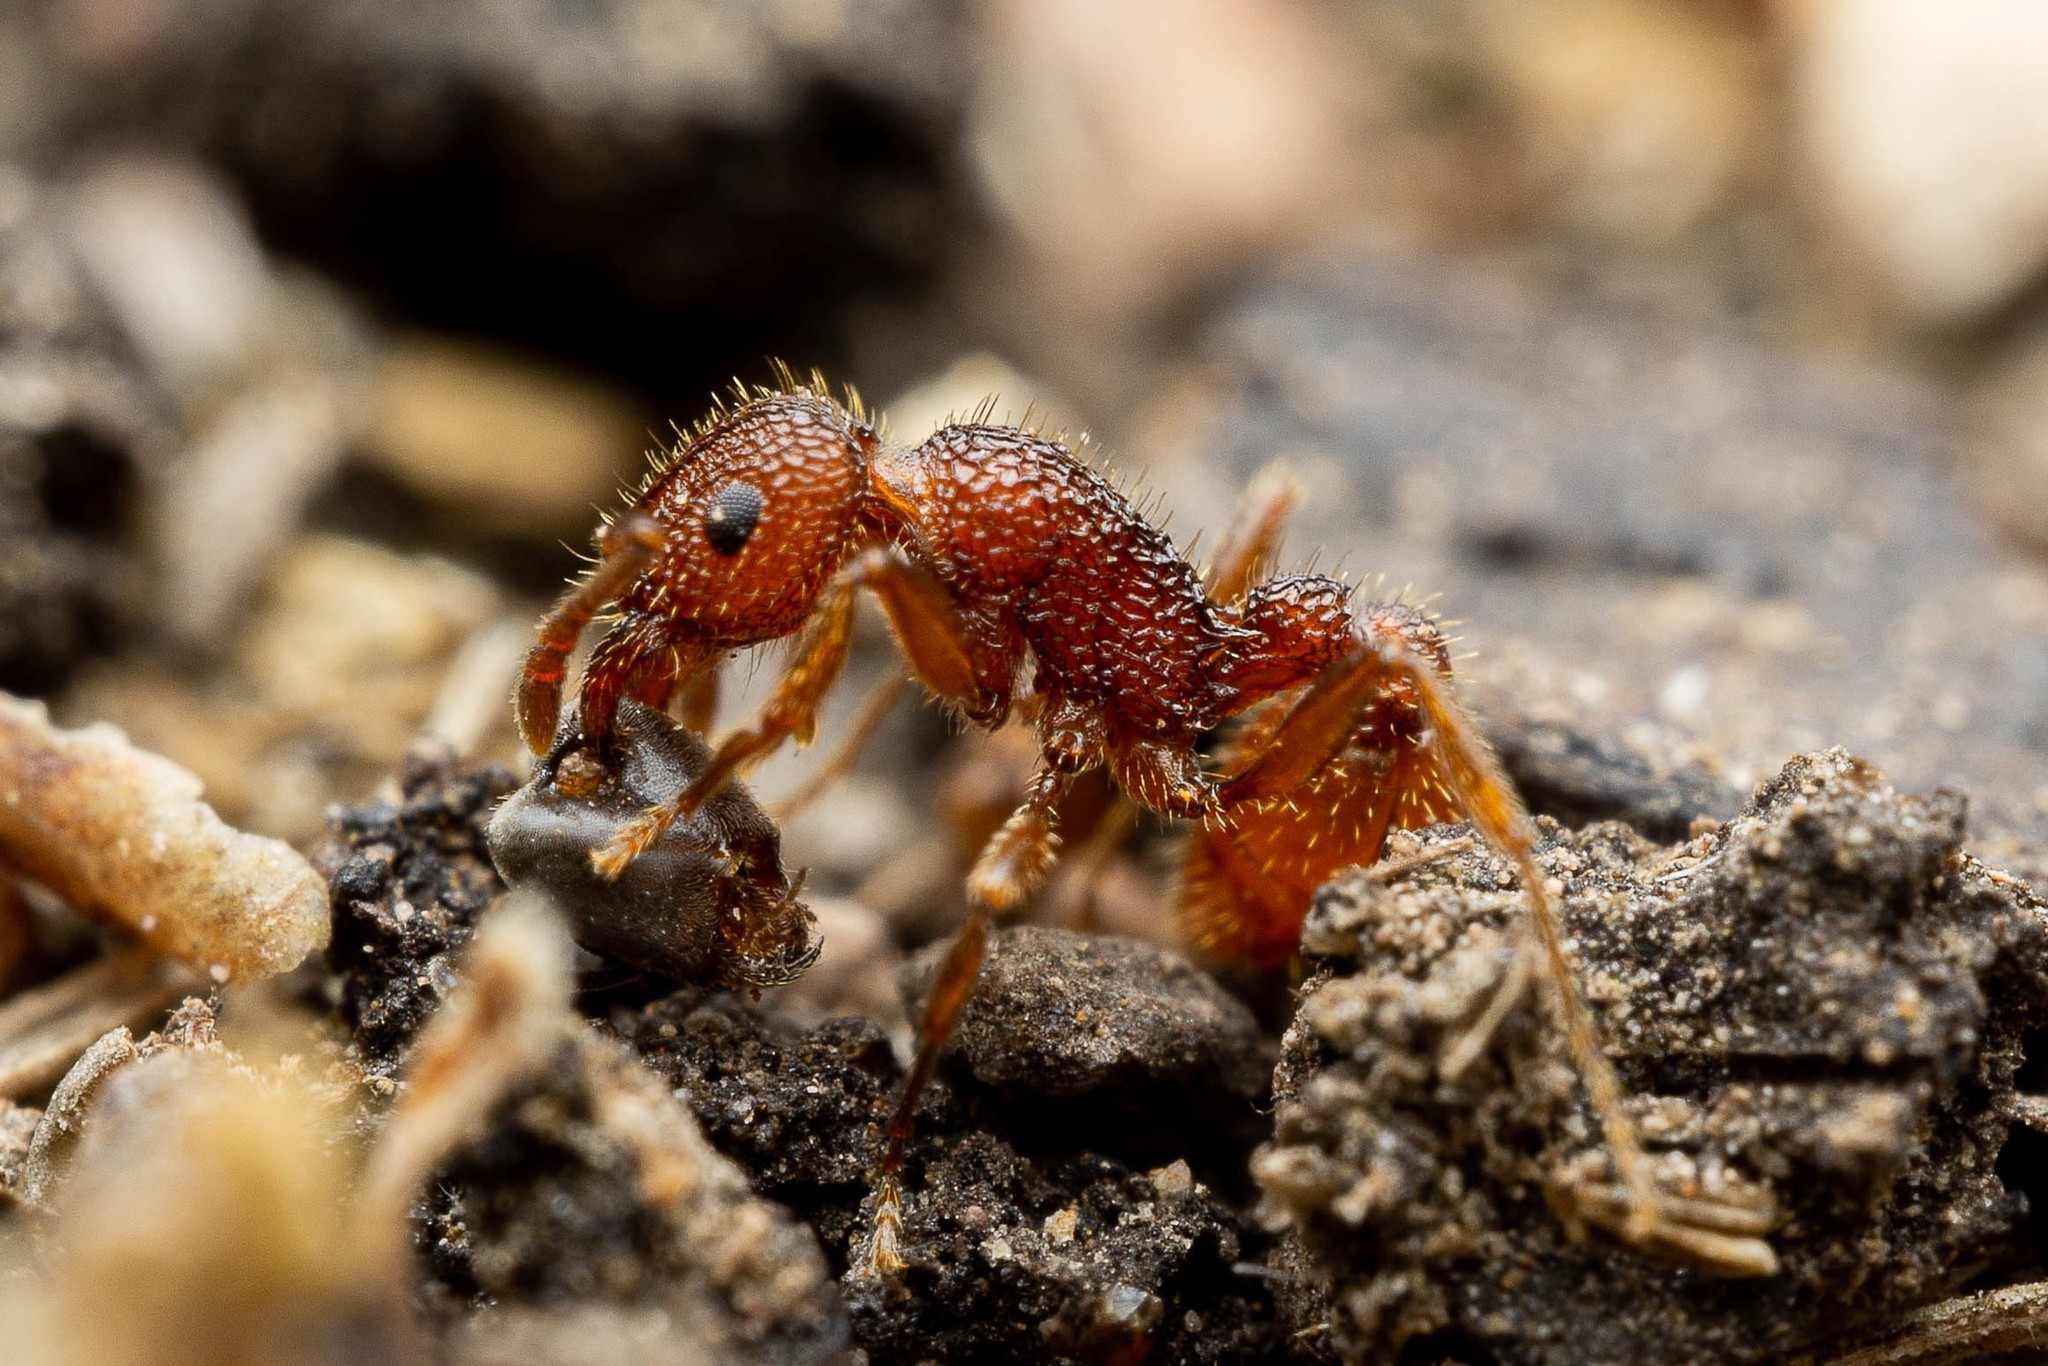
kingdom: Animalia
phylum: Arthropoda
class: Insecta
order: Hymenoptera
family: Formicidae
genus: Tetramorium
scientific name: Tetramorium hispidum
